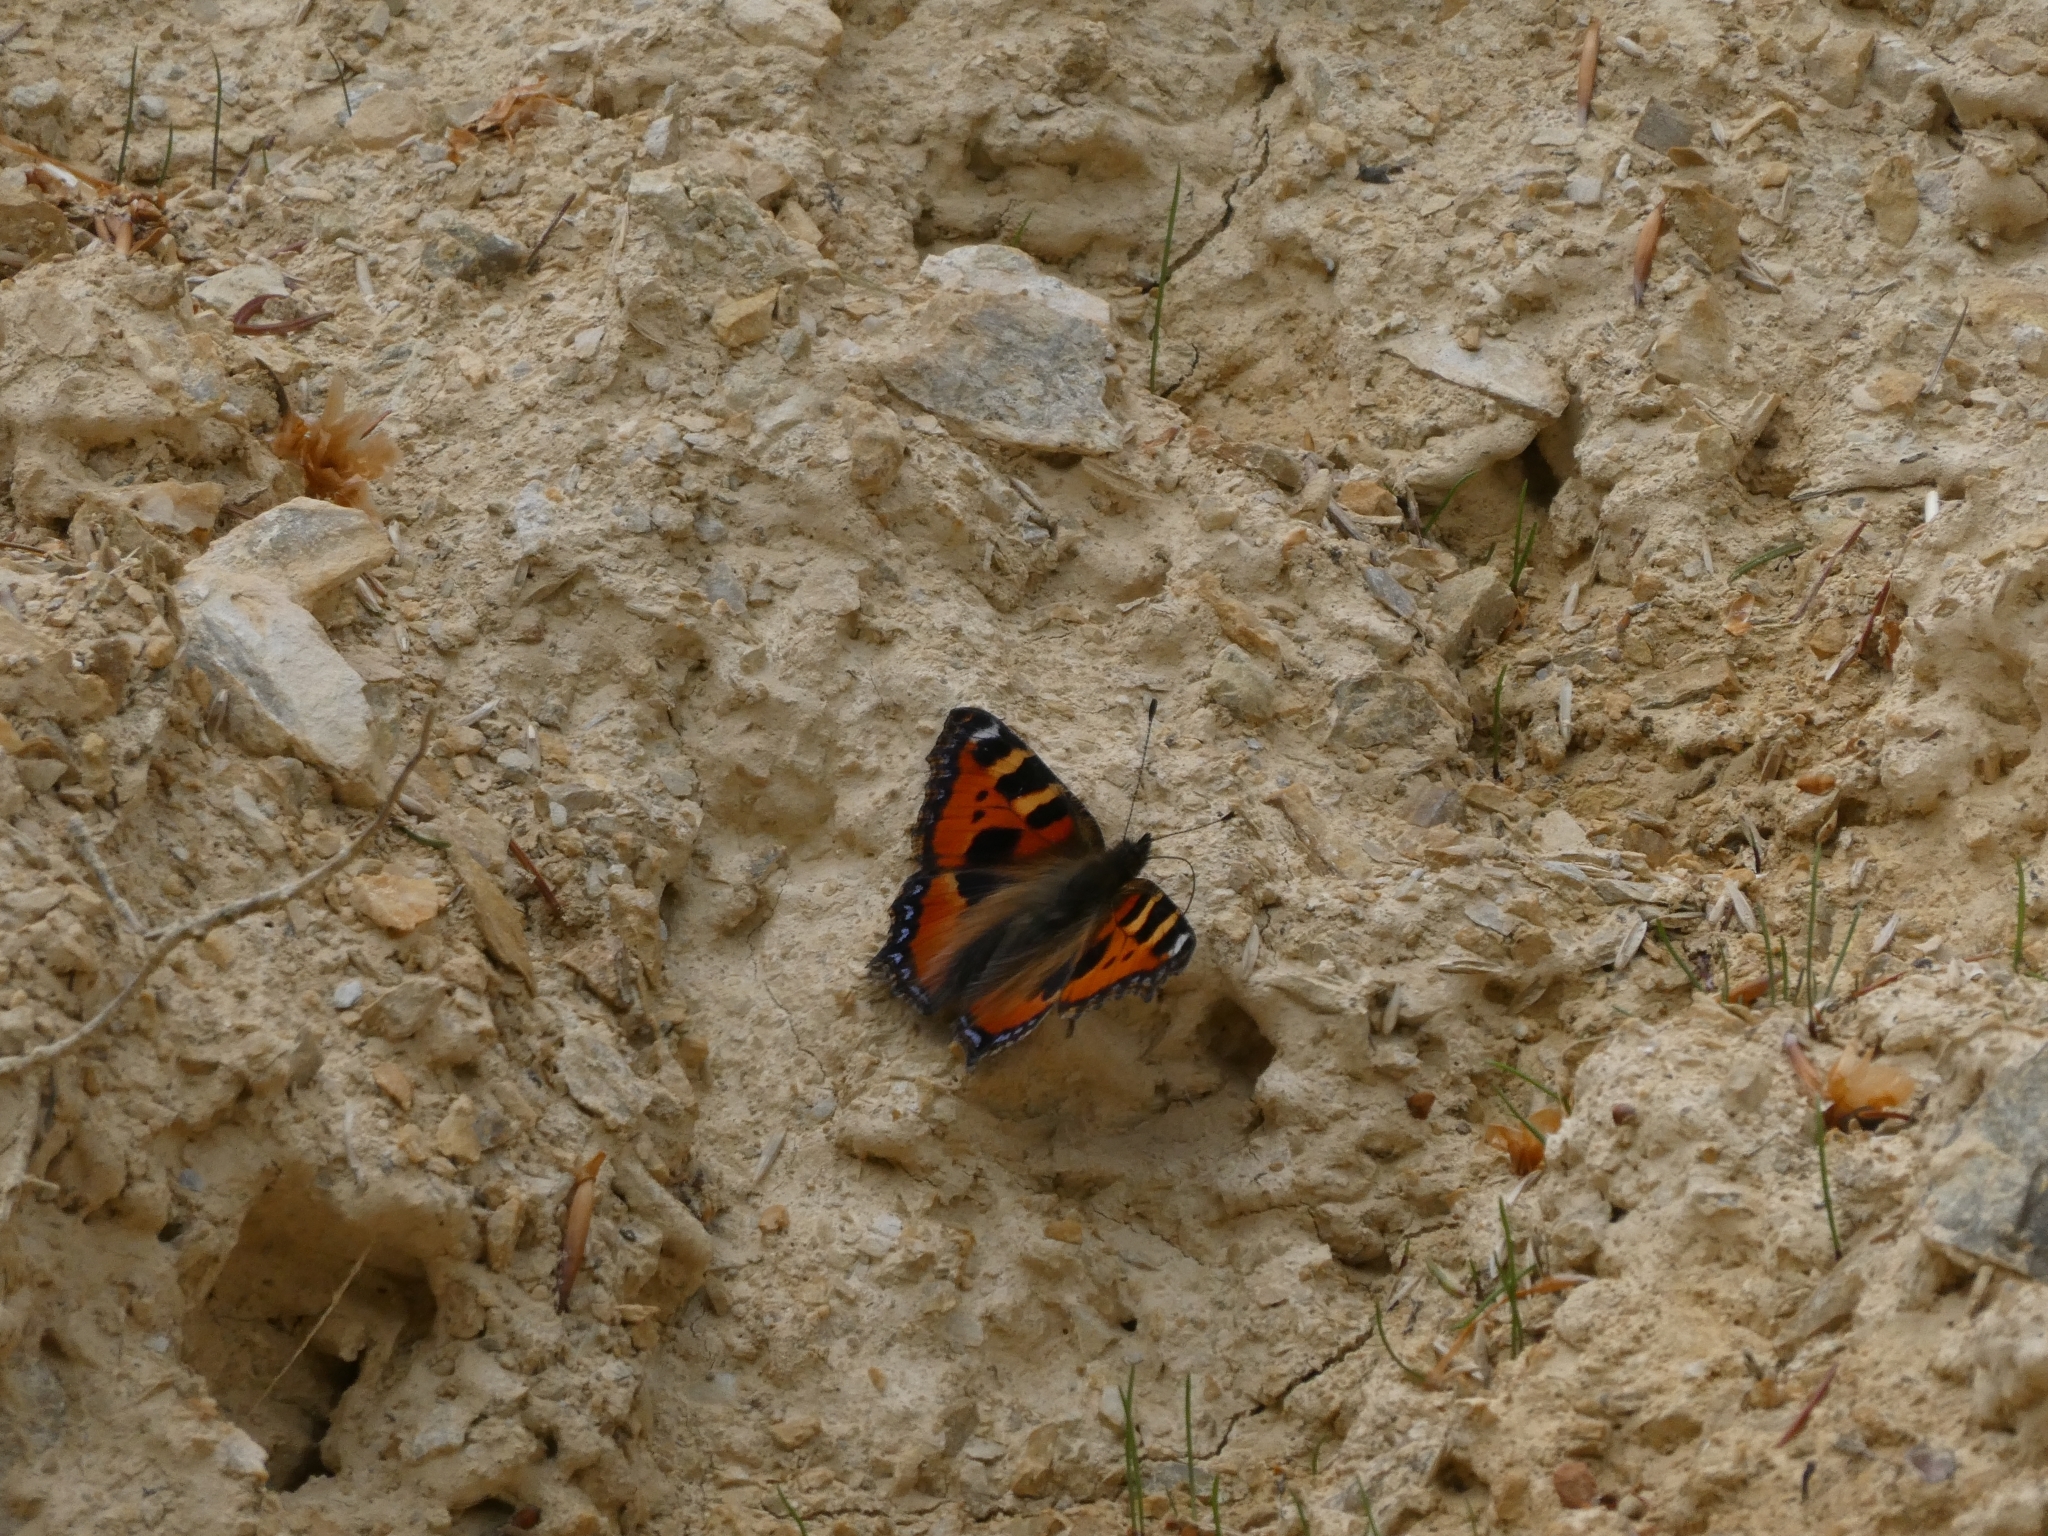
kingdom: Animalia
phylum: Arthropoda
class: Insecta
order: Lepidoptera
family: Nymphalidae
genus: Aglais
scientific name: Aglais urticae
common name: Small tortoiseshell
